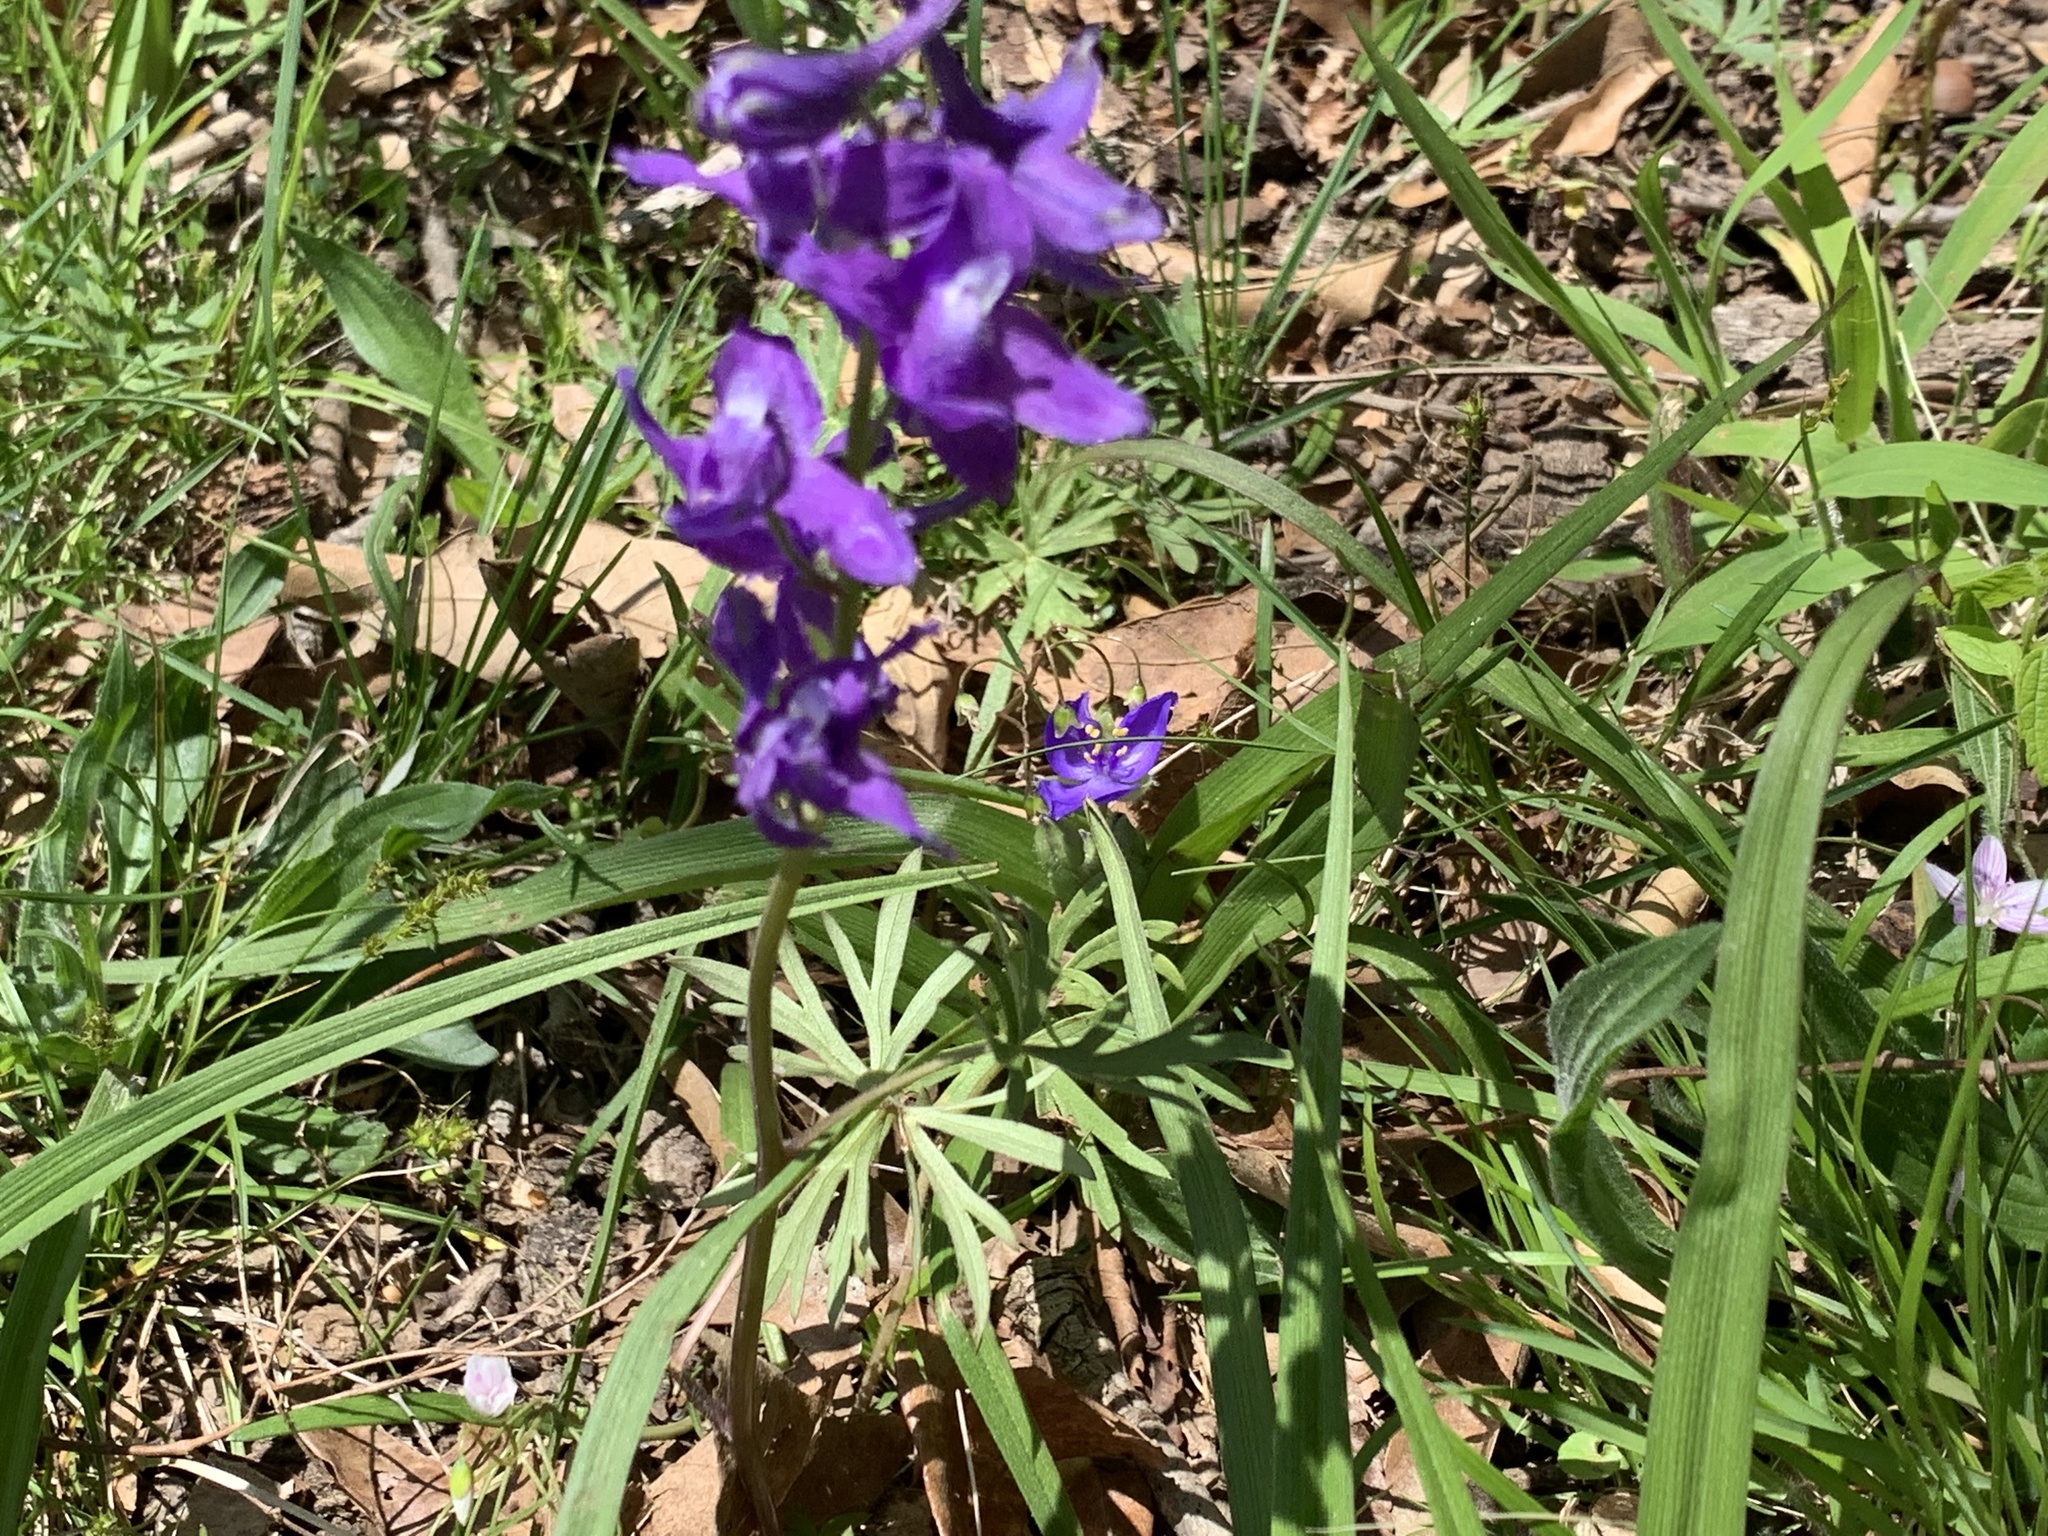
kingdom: Plantae
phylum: Tracheophyta
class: Magnoliopsida
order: Ranunculales
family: Ranunculaceae
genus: Delphinium
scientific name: Delphinium tricorne
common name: Dwarf larkspur
